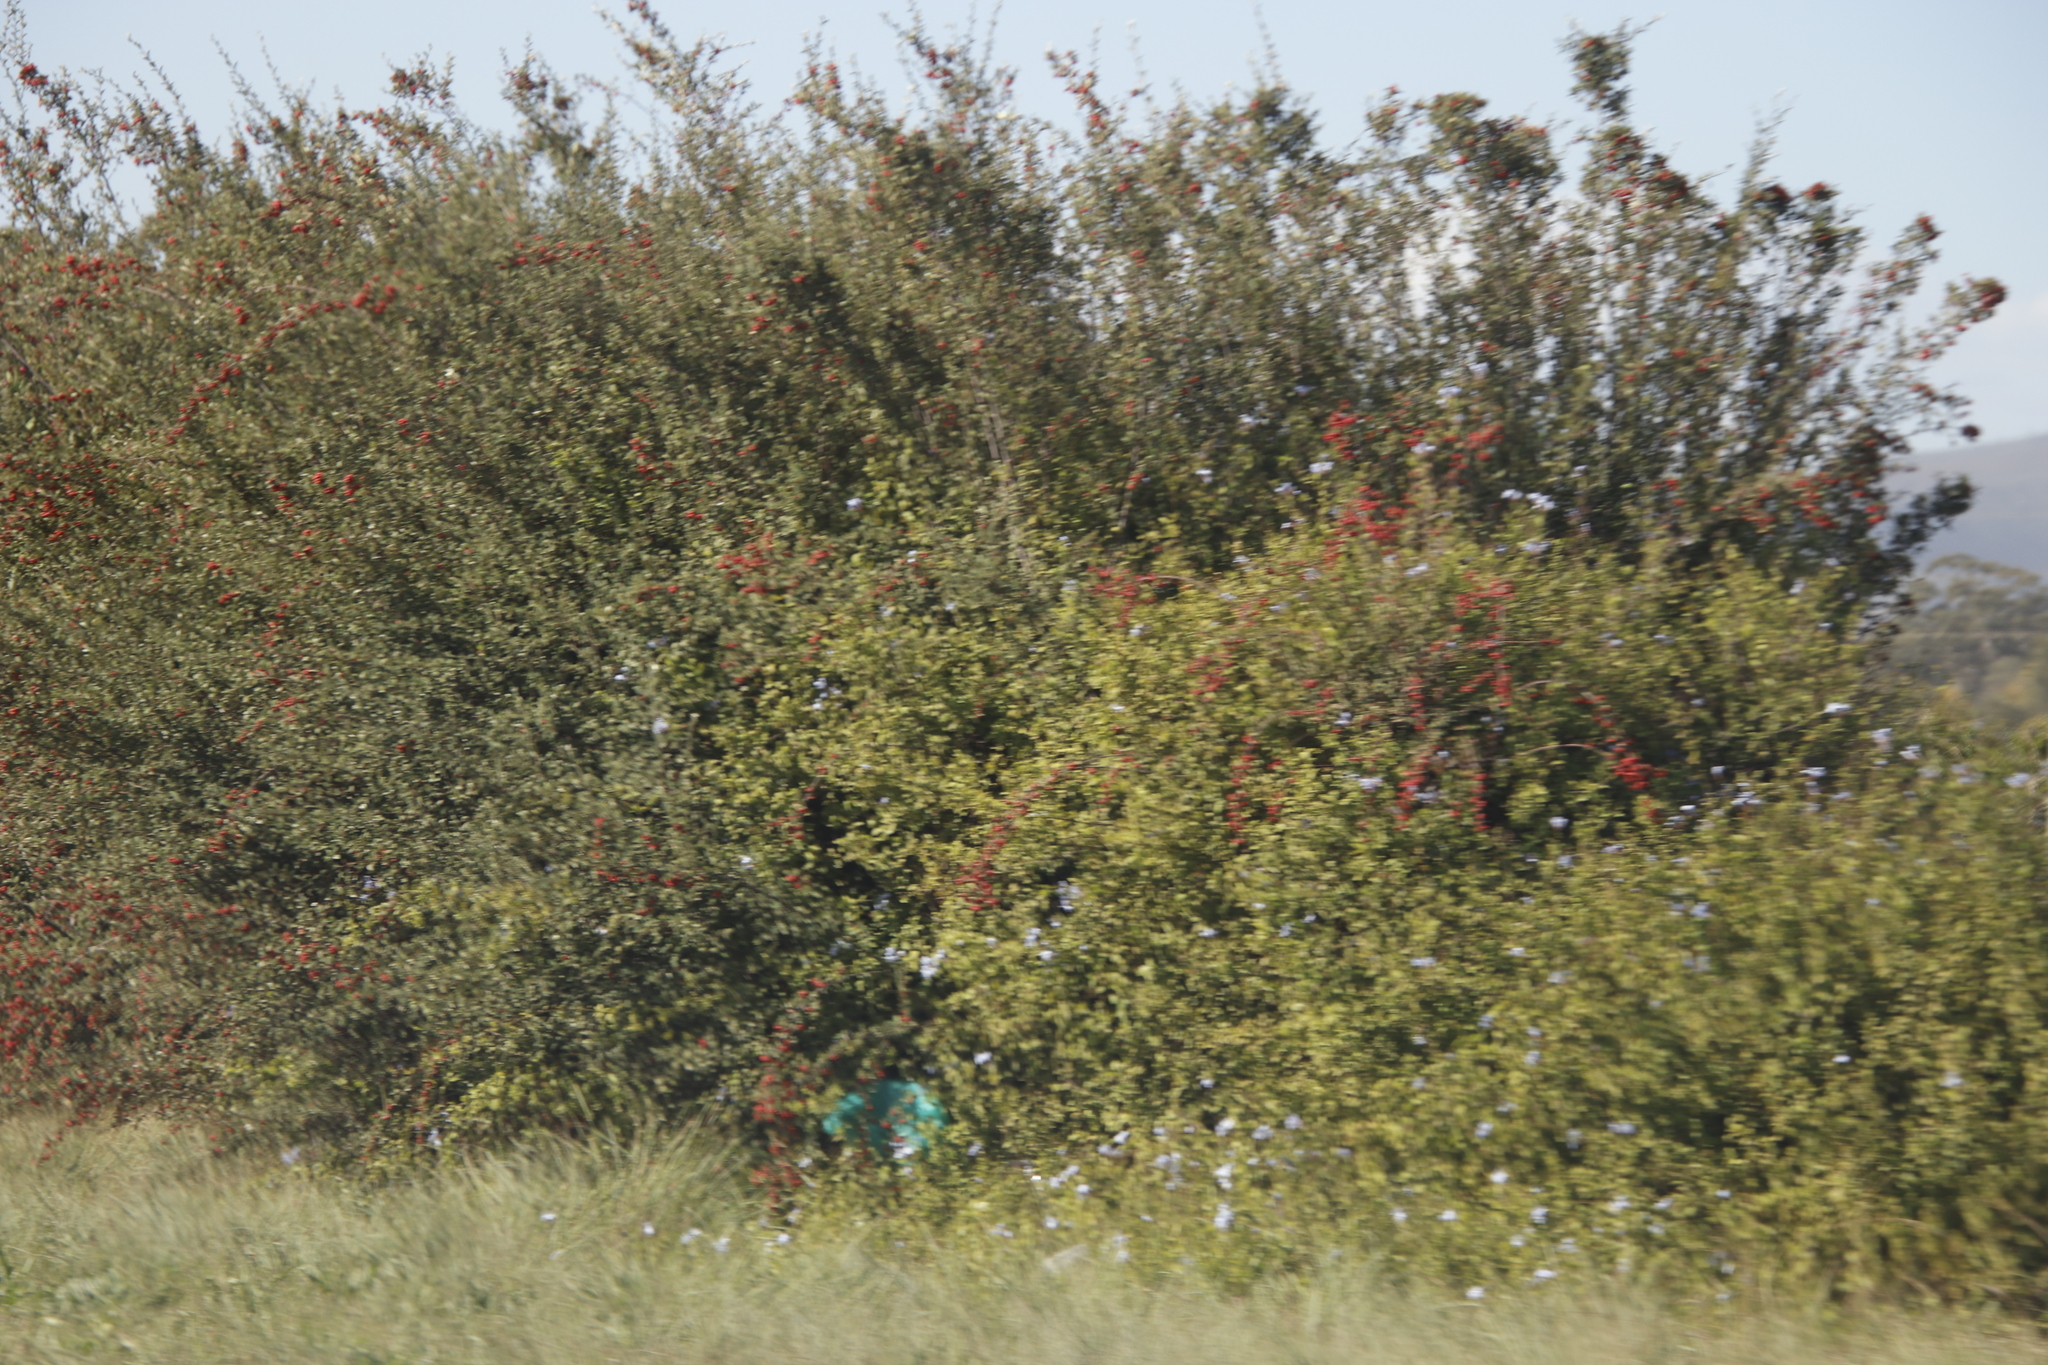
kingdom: Plantae
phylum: Tracheophyta
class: Magnoliopsida
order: Caryophyllales
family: Plumbaginaceae
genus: Plumbago
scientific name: Plumbago auriculata
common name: Cape leadwort
